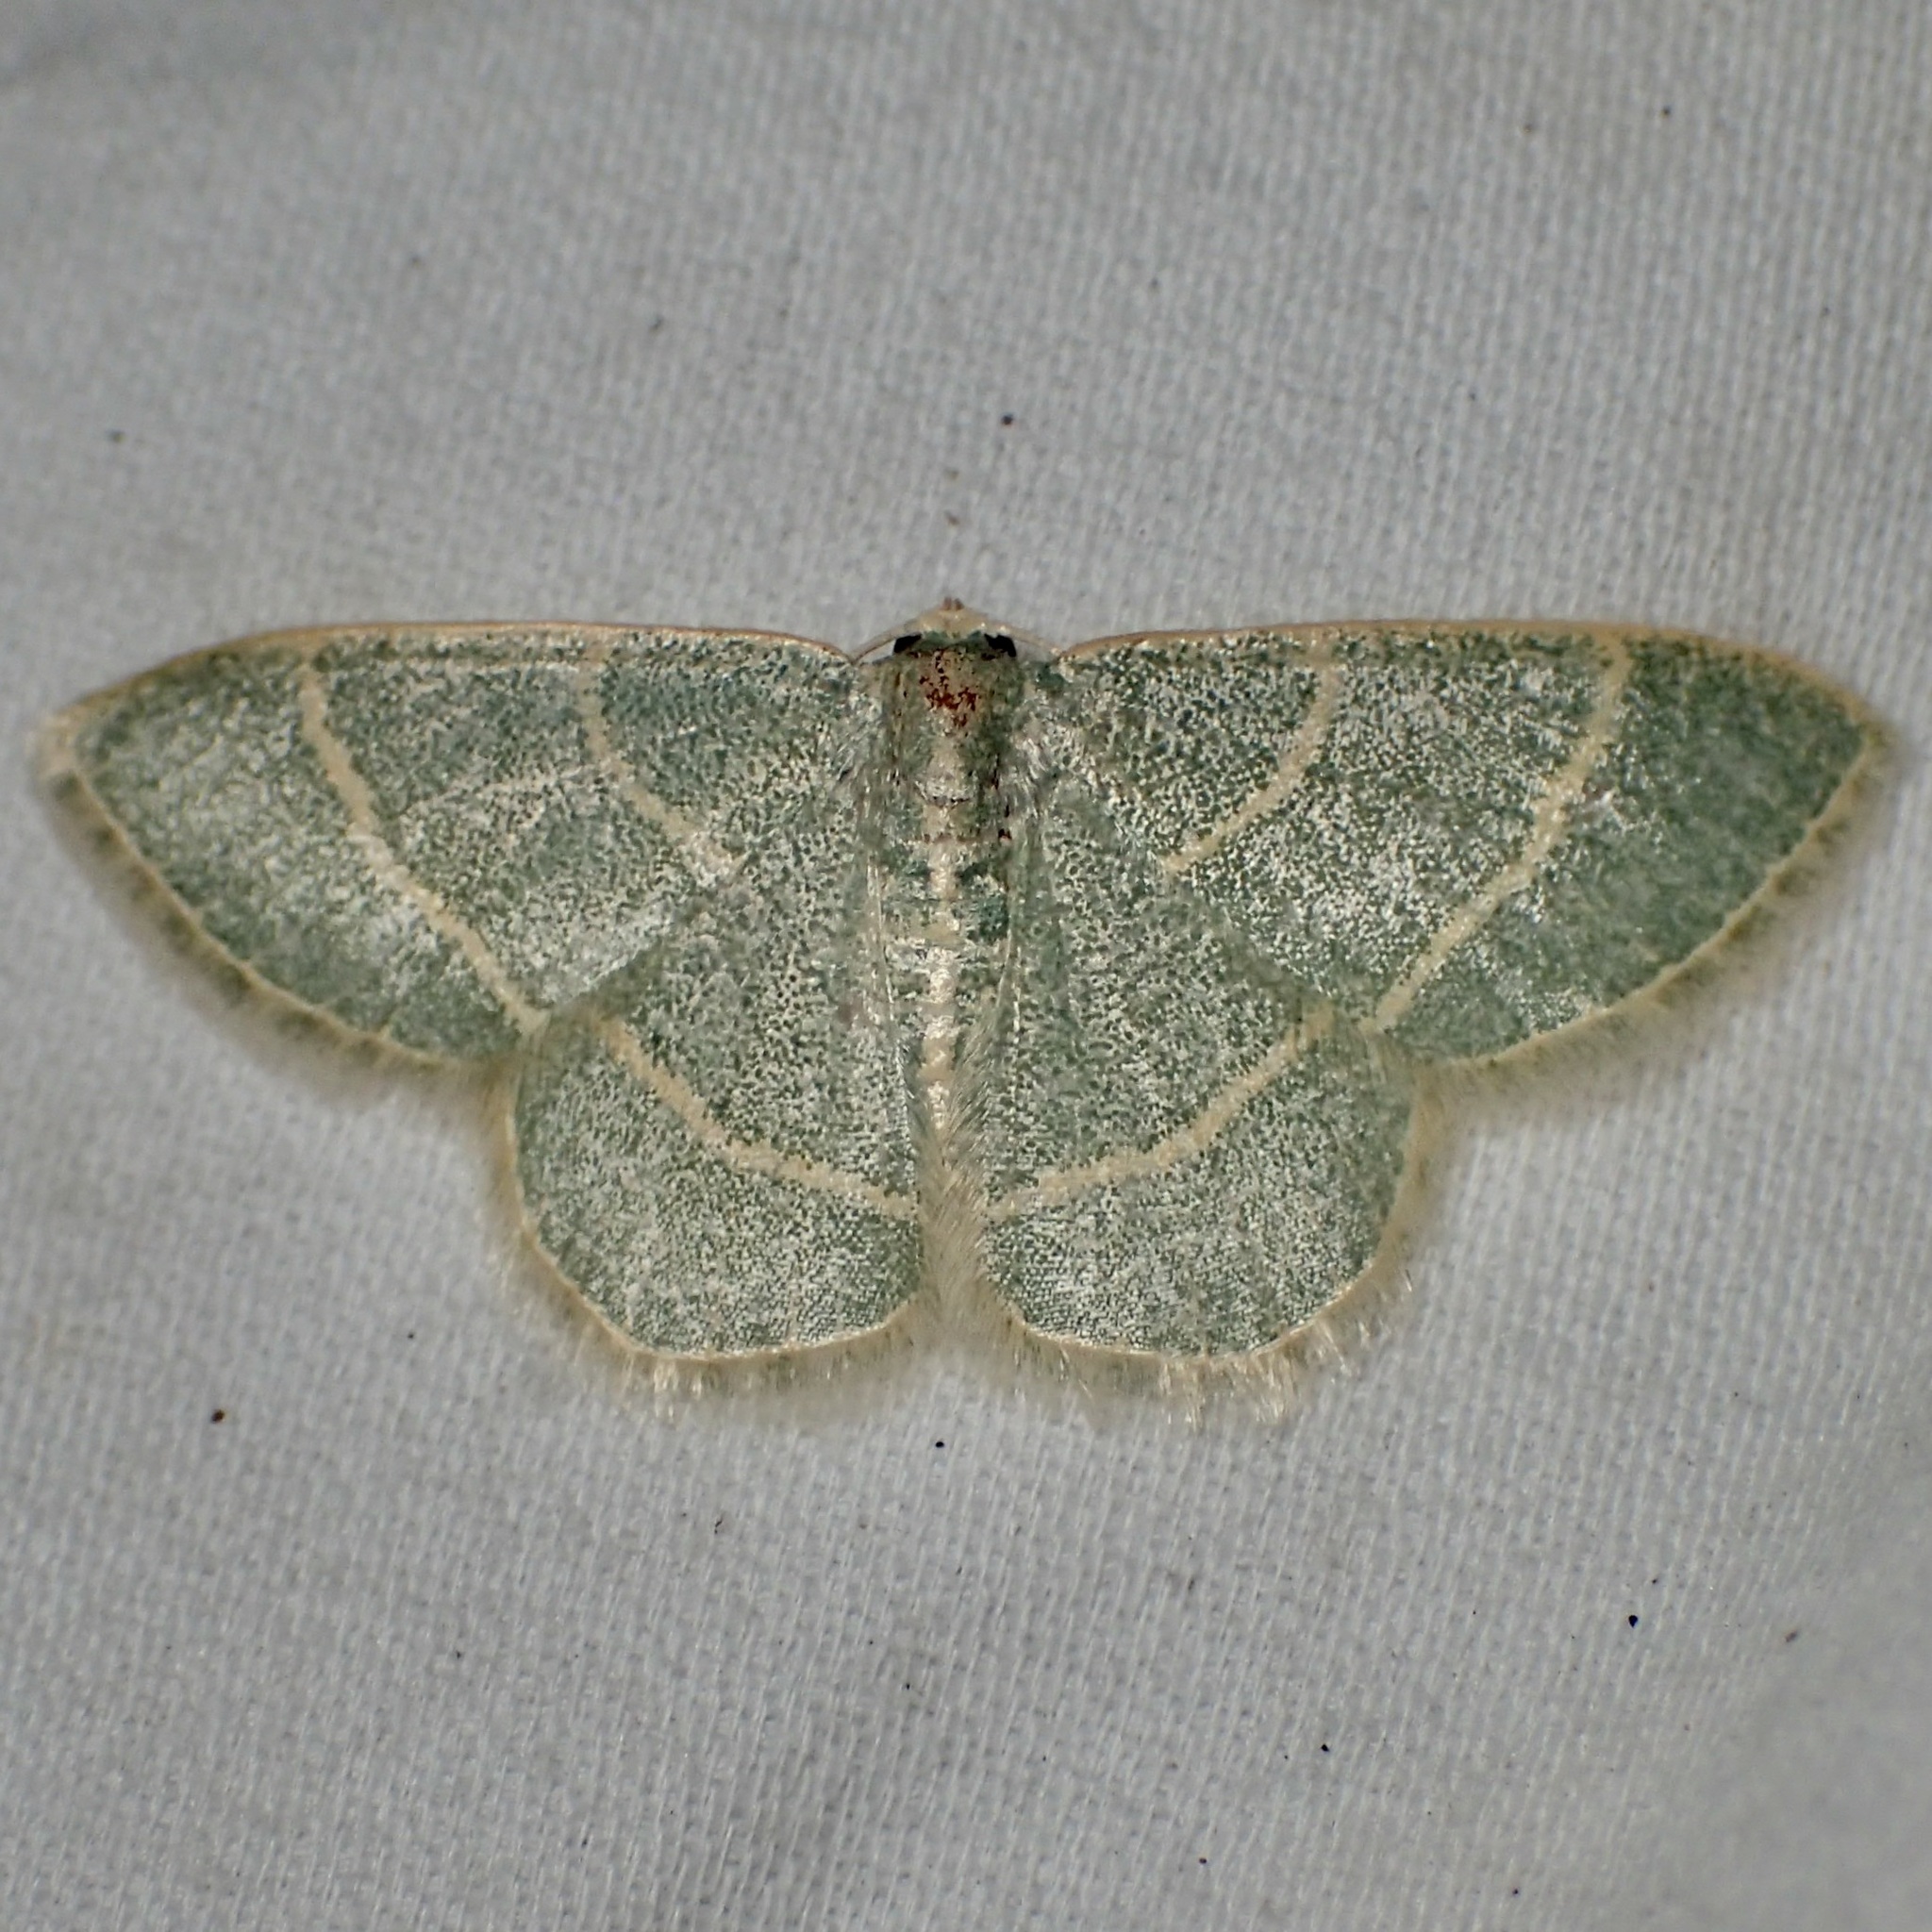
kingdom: Animalia
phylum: Arthropoda
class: Insecta
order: Lepidoptera
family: Geometridae
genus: Chlorochlamys
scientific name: Chlorochlamys appellaria
